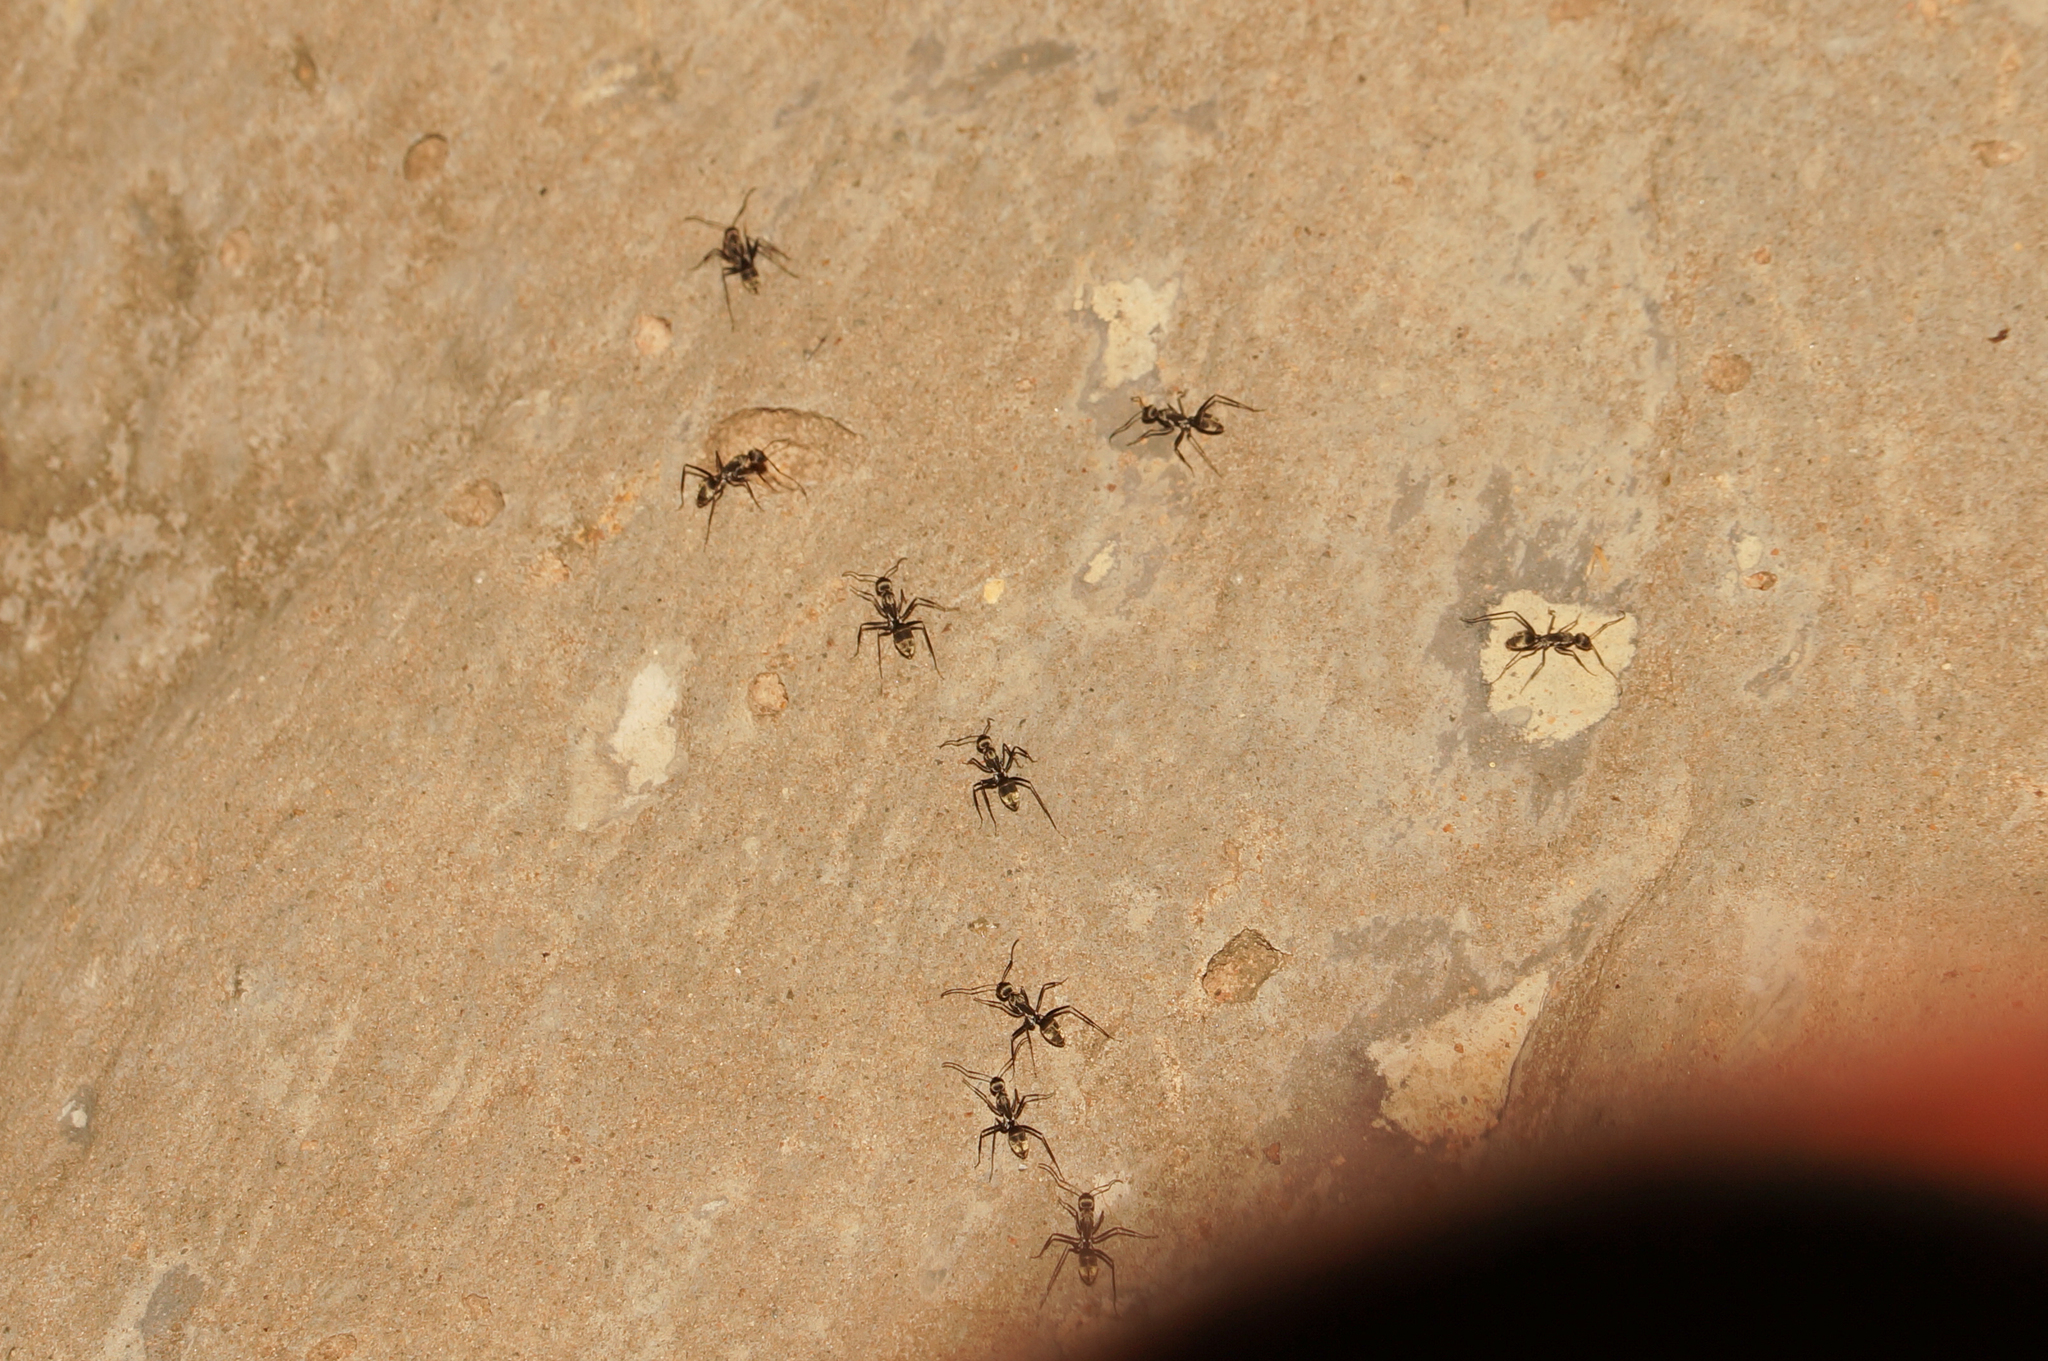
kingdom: Animalia
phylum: Arthropoda
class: Insecta
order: Hymenoptera
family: Formicidae
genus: Camponotus
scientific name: Camponotus parius
